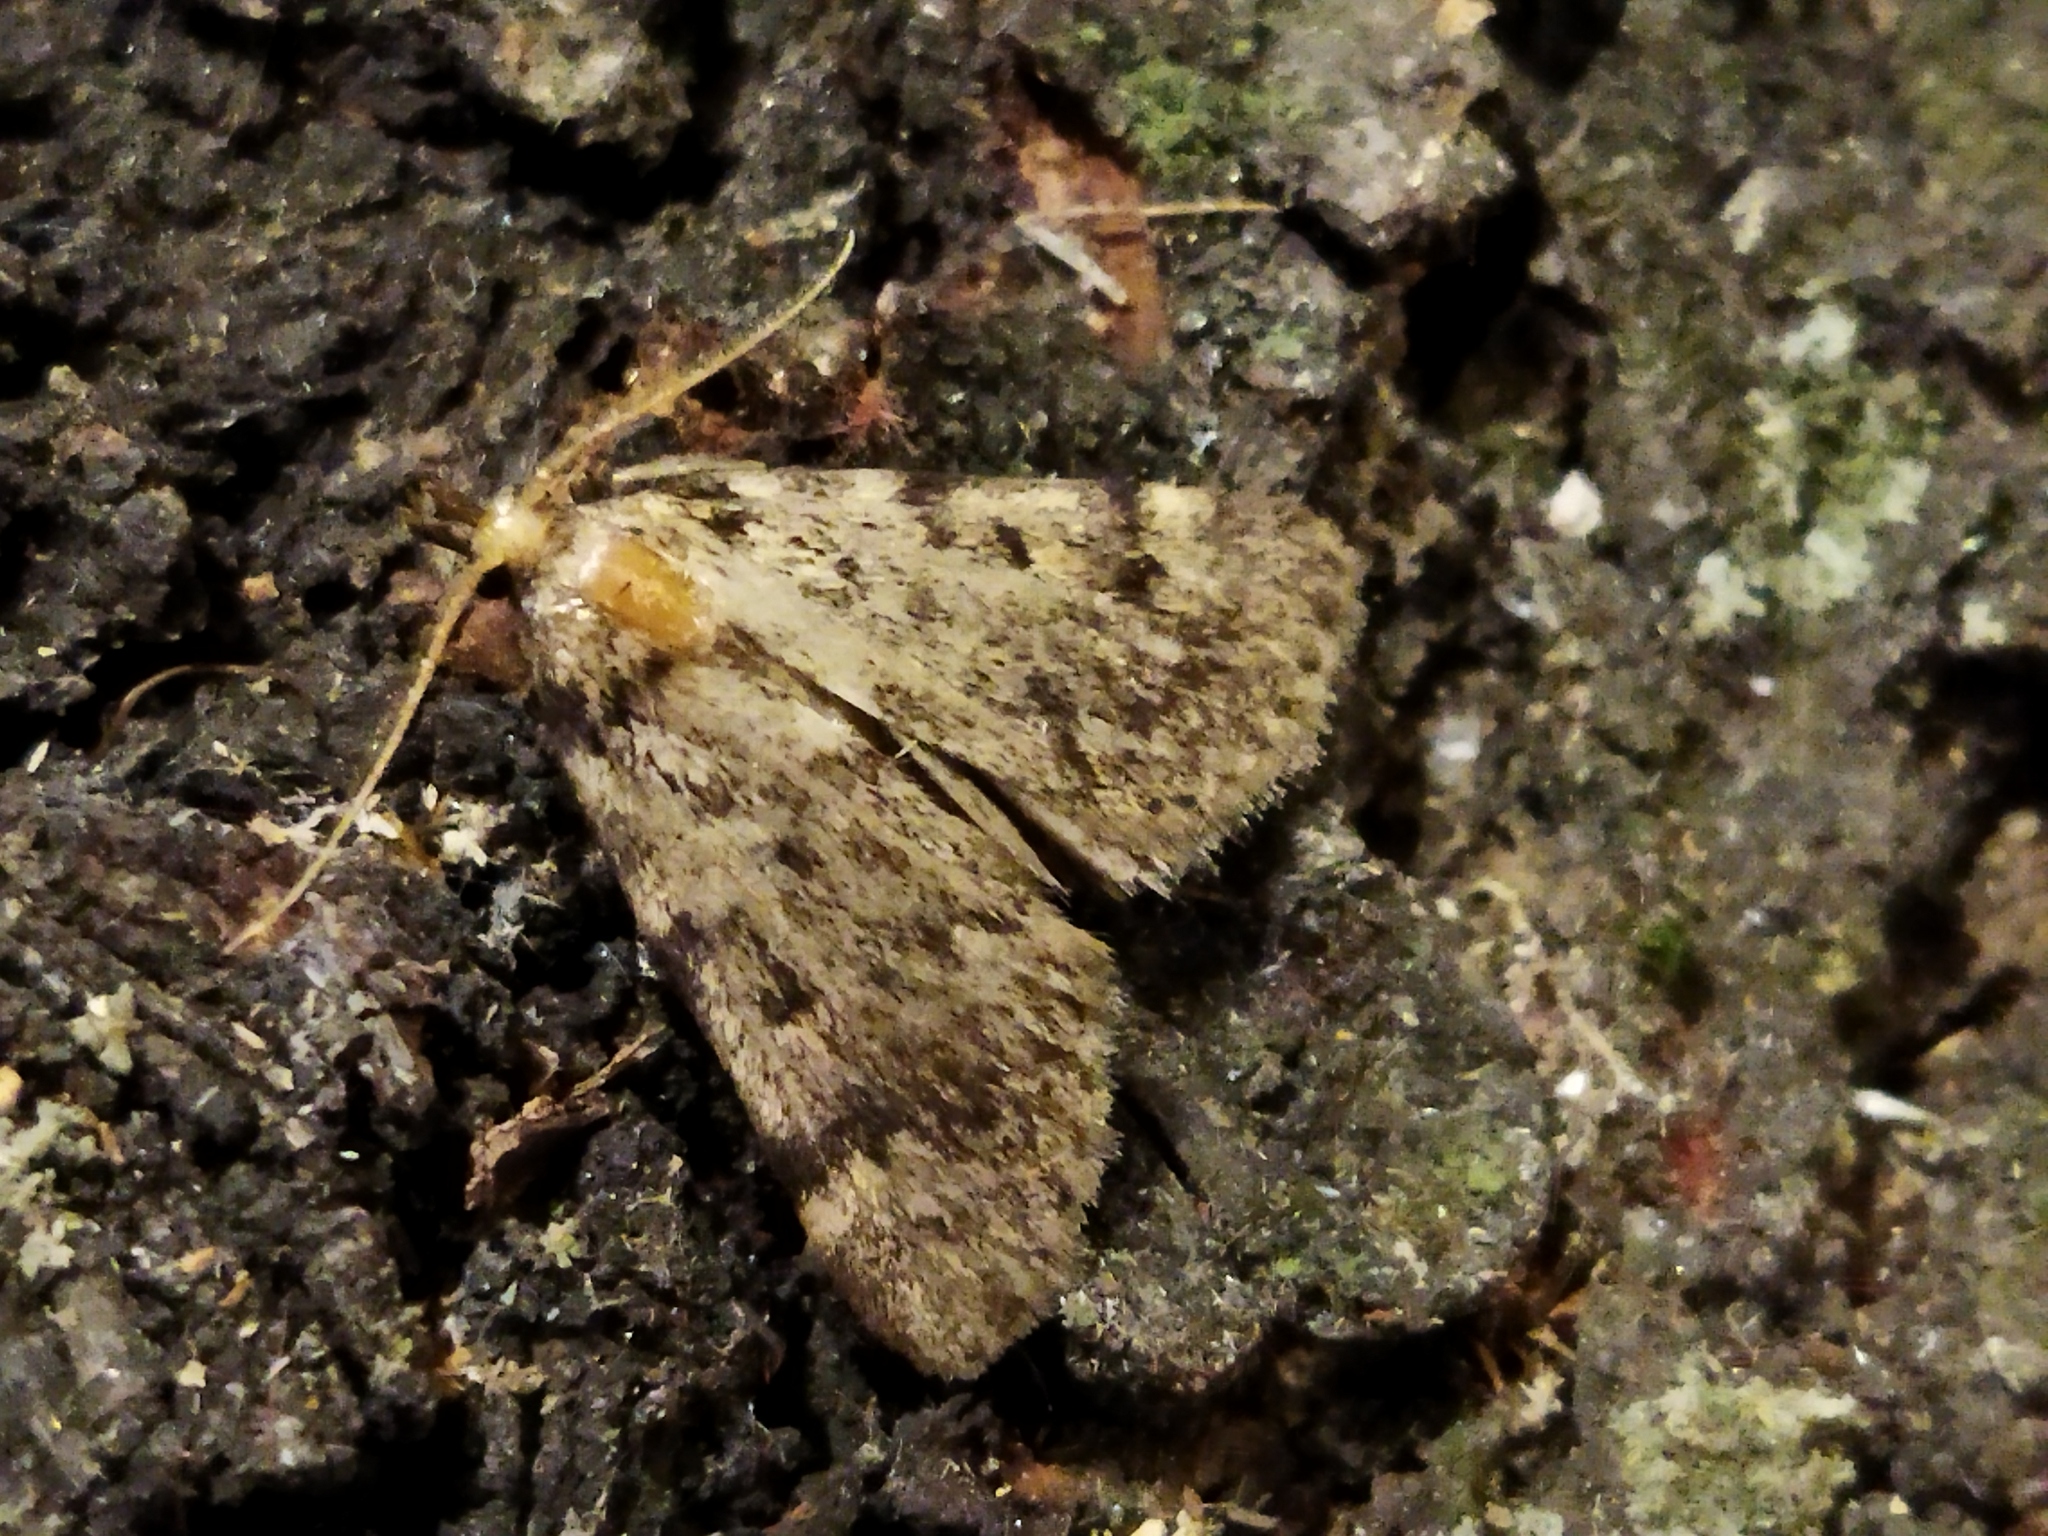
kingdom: Animalia
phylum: Arthropoda
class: Insecta
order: Lepidoptera
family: Pyralidae
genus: Aglossa
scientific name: Aglossa pinguinalis
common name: Large tabby
